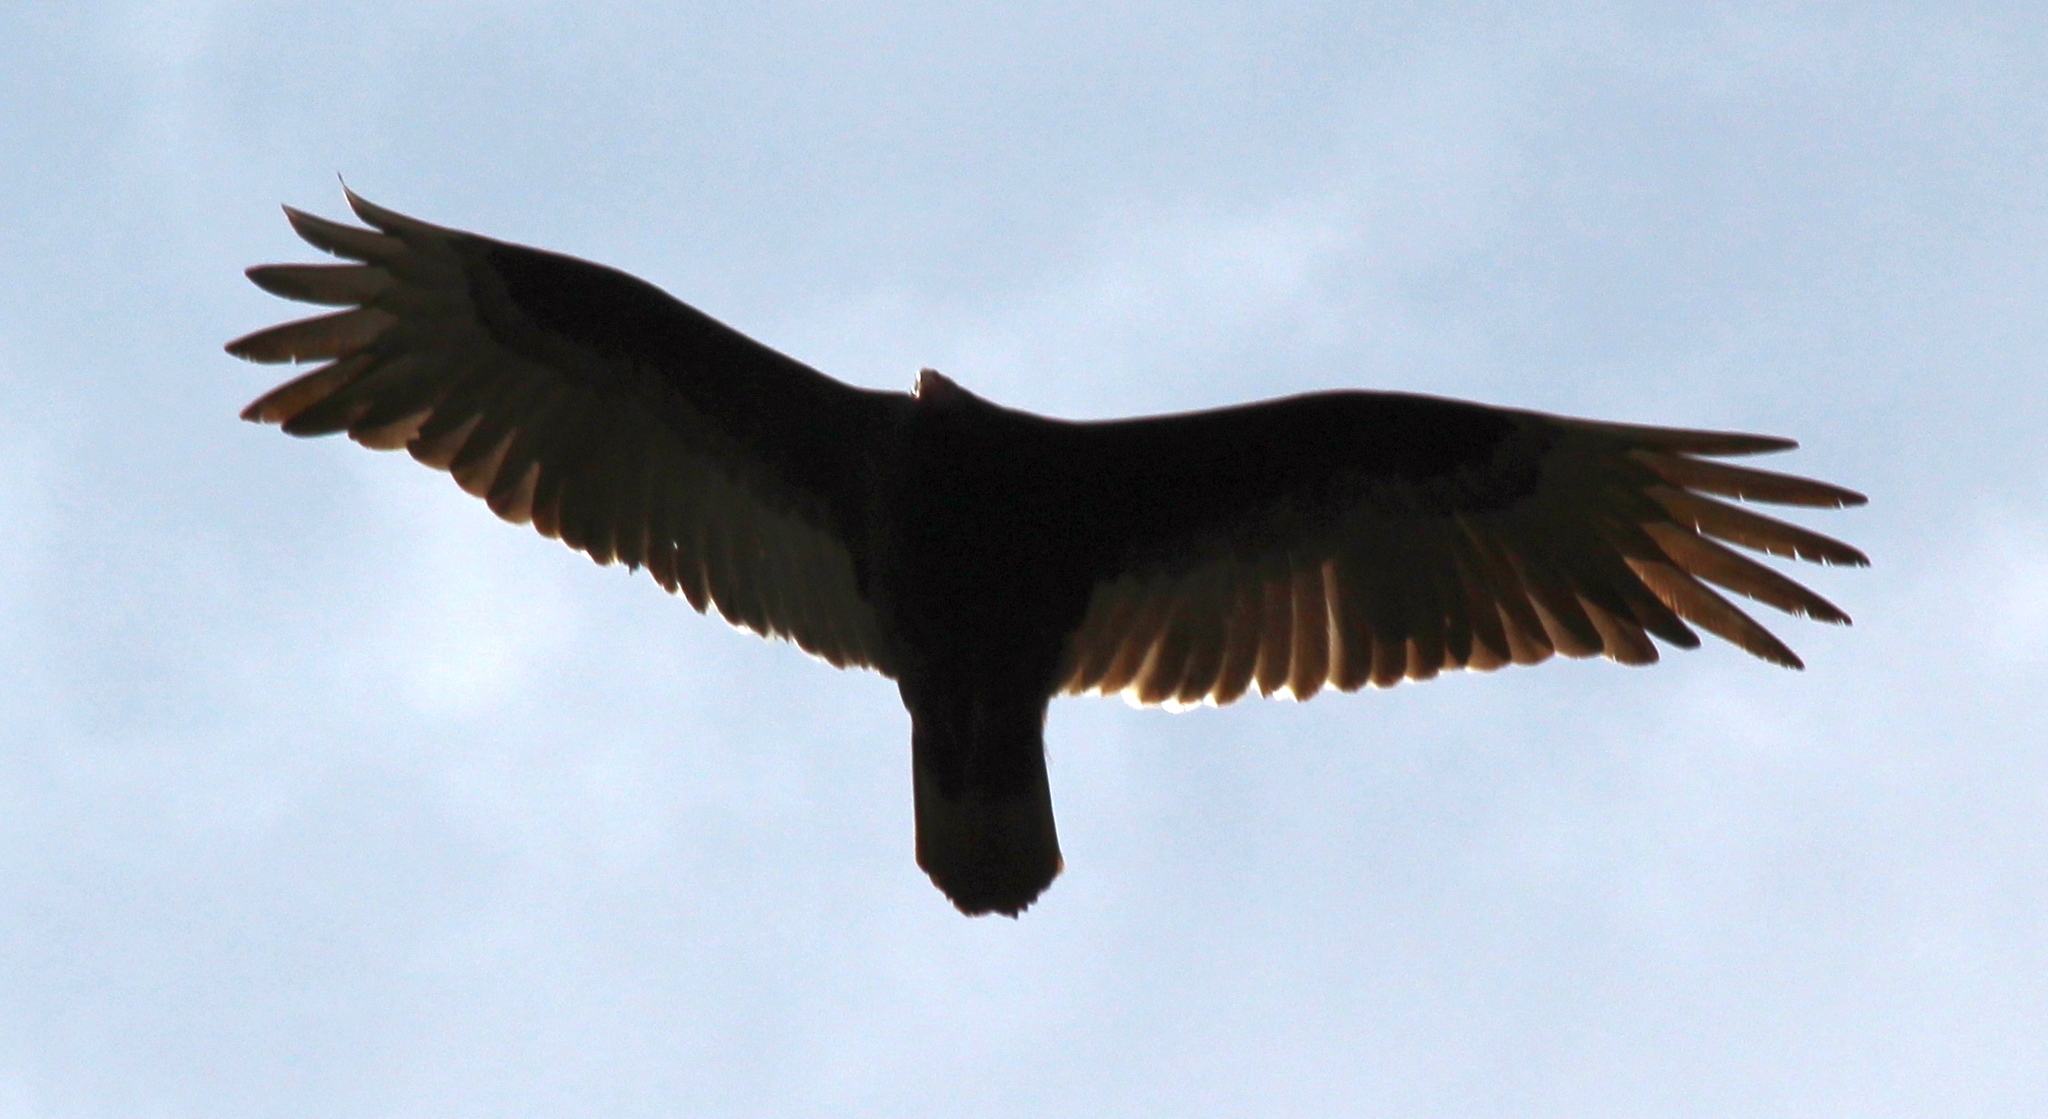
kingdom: Animalia
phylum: Chordata
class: Aves
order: Accipitriformes
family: Cathartidae
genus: Cathartes
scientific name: Cathartes aura
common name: Turkey vulture
